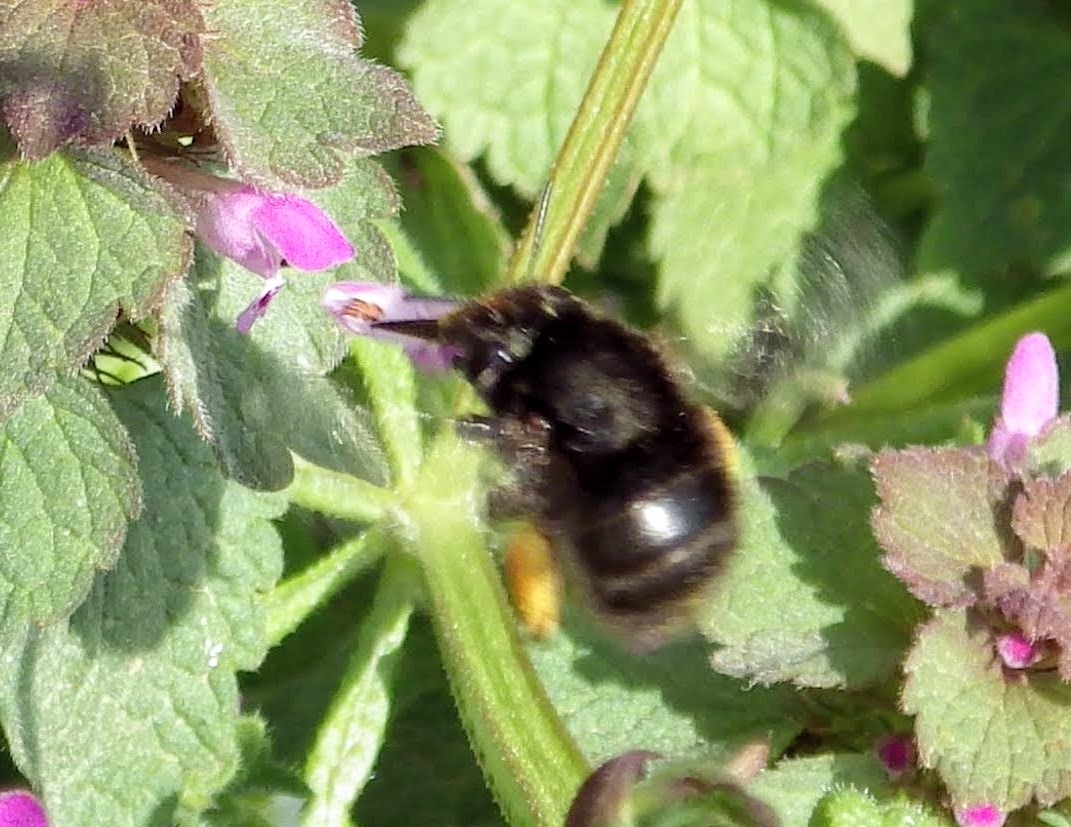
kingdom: Animalia
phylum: Arthropoda
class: Insecta
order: Hymenoptera
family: Apidae
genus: Anthophora
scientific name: Anthophora plumipes
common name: Hairy-footed flower bee
